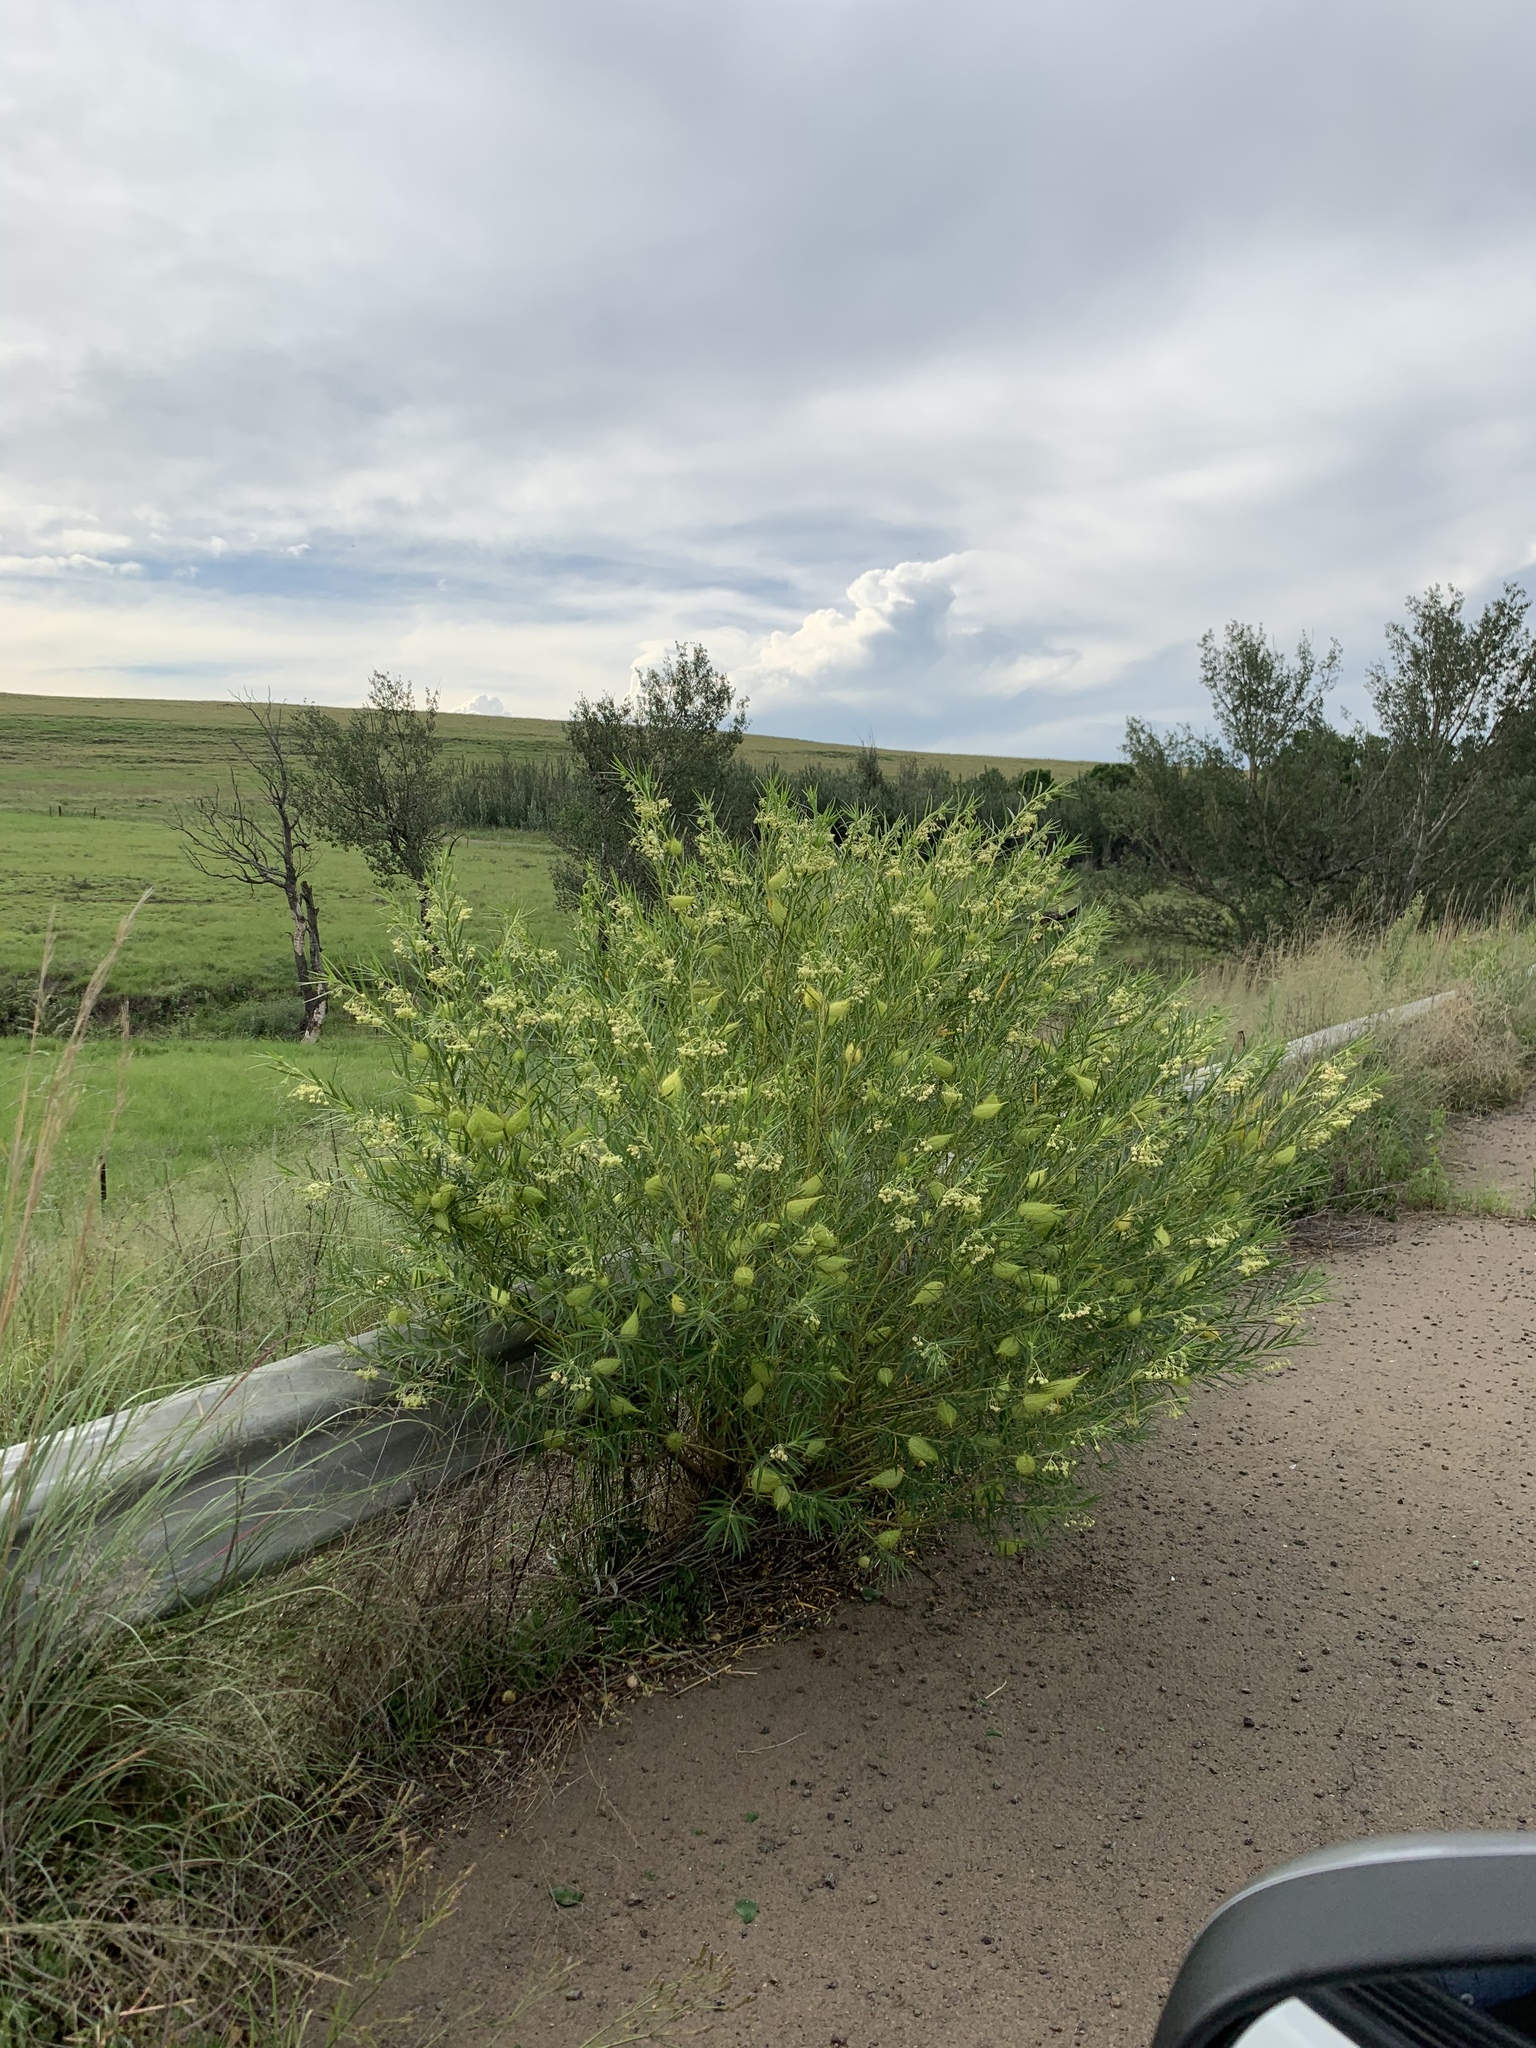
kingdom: Plantae
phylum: Tracheophyta
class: Magnoliopsida
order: Gentianales
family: Apocynaceae
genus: Gomphocarpus
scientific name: Gomphocarpus fruticosus
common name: Milkweed
